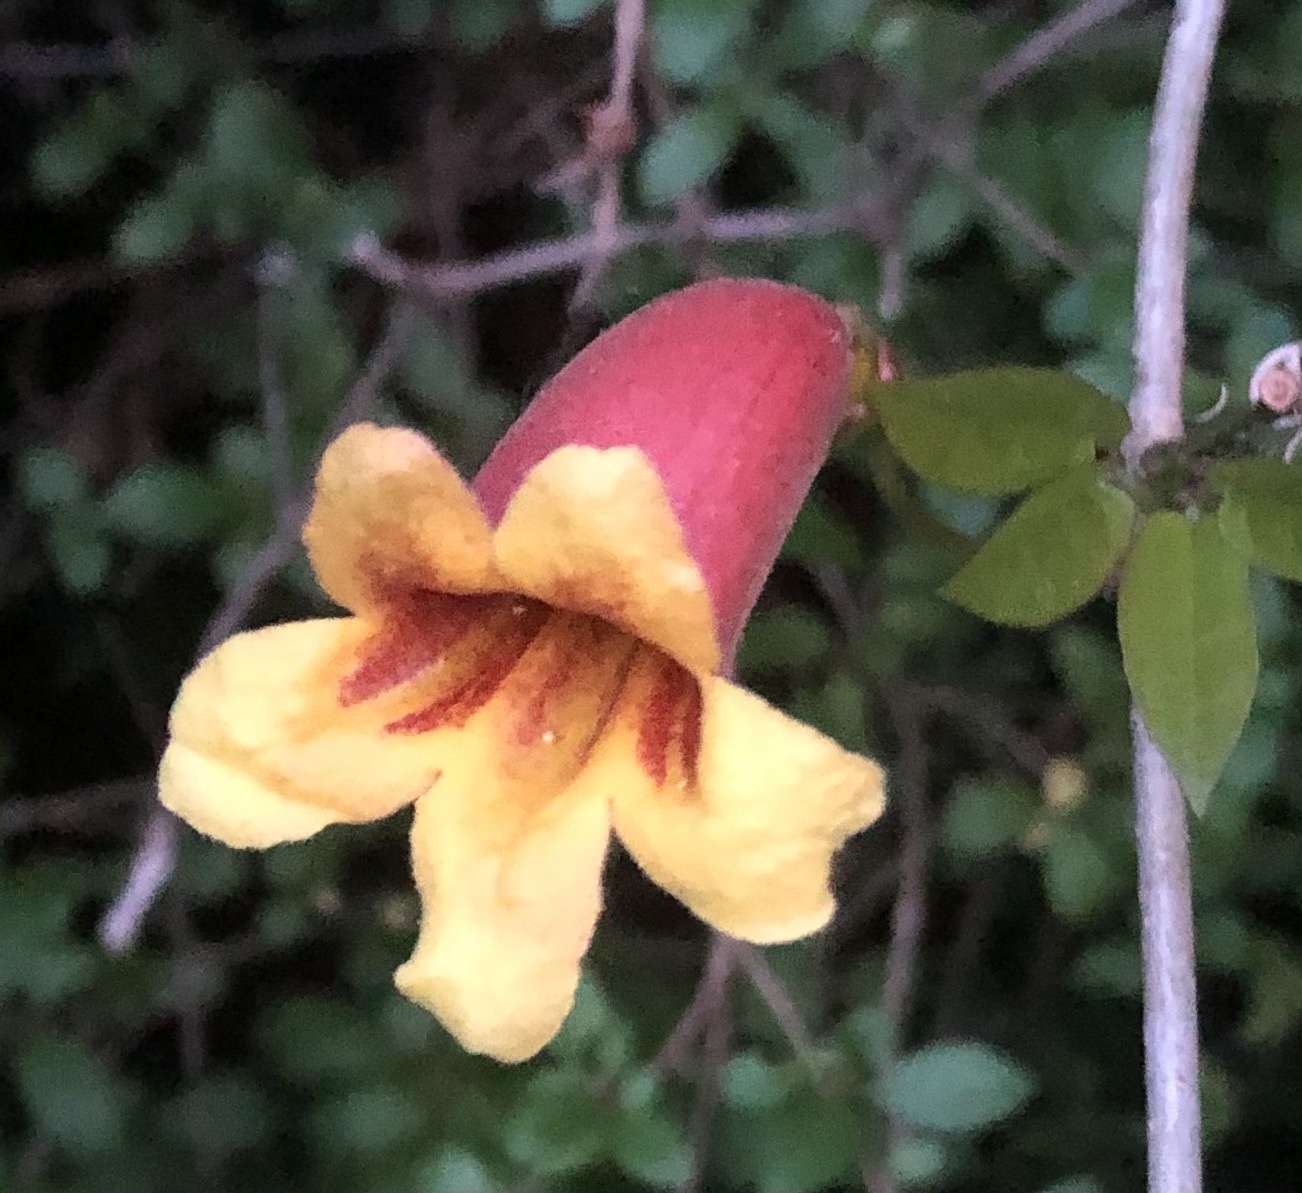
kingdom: Plantae
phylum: Tracheophyta
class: Magnoliopsida
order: Lamiales
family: Bignoniaceae
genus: Bignonia
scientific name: Bignonia capreolata
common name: Crossvine
